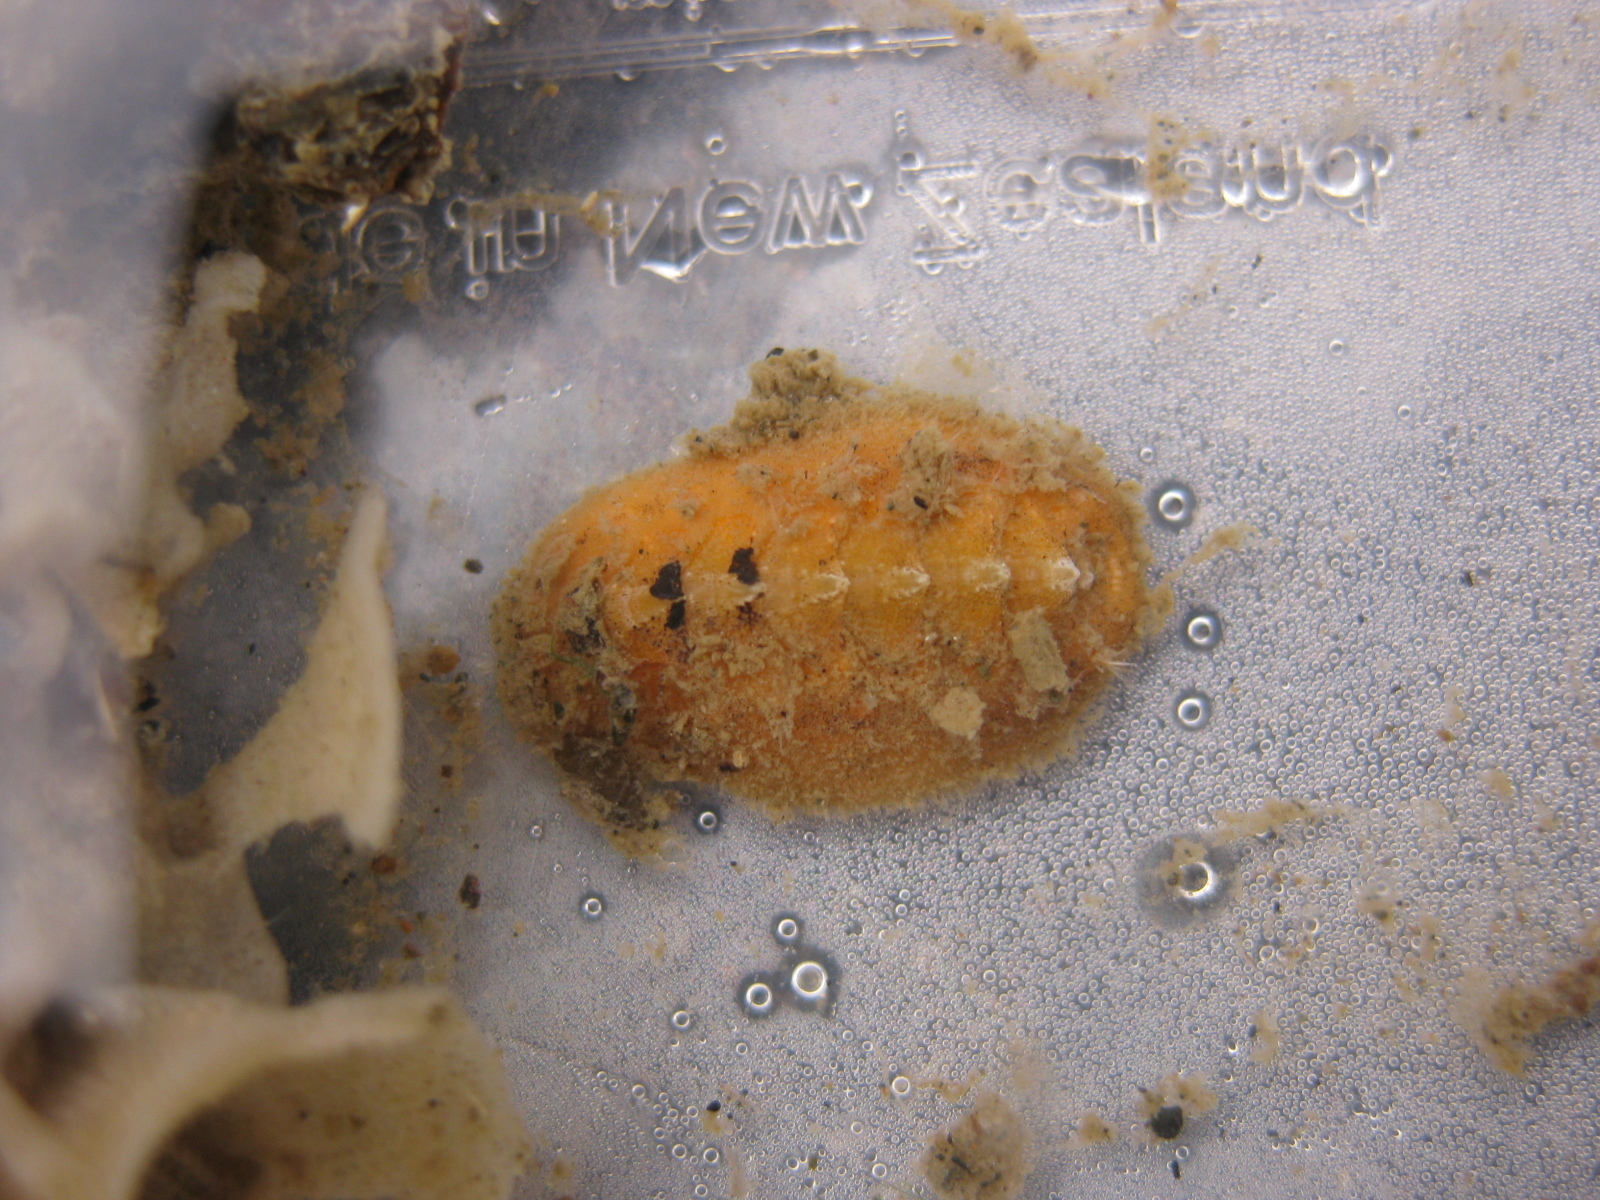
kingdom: Animalia
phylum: Mollusca
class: Polyplacophora
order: Chitonida
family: Acanthochitonidae
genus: Notoplax
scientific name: Notoplax mariae
